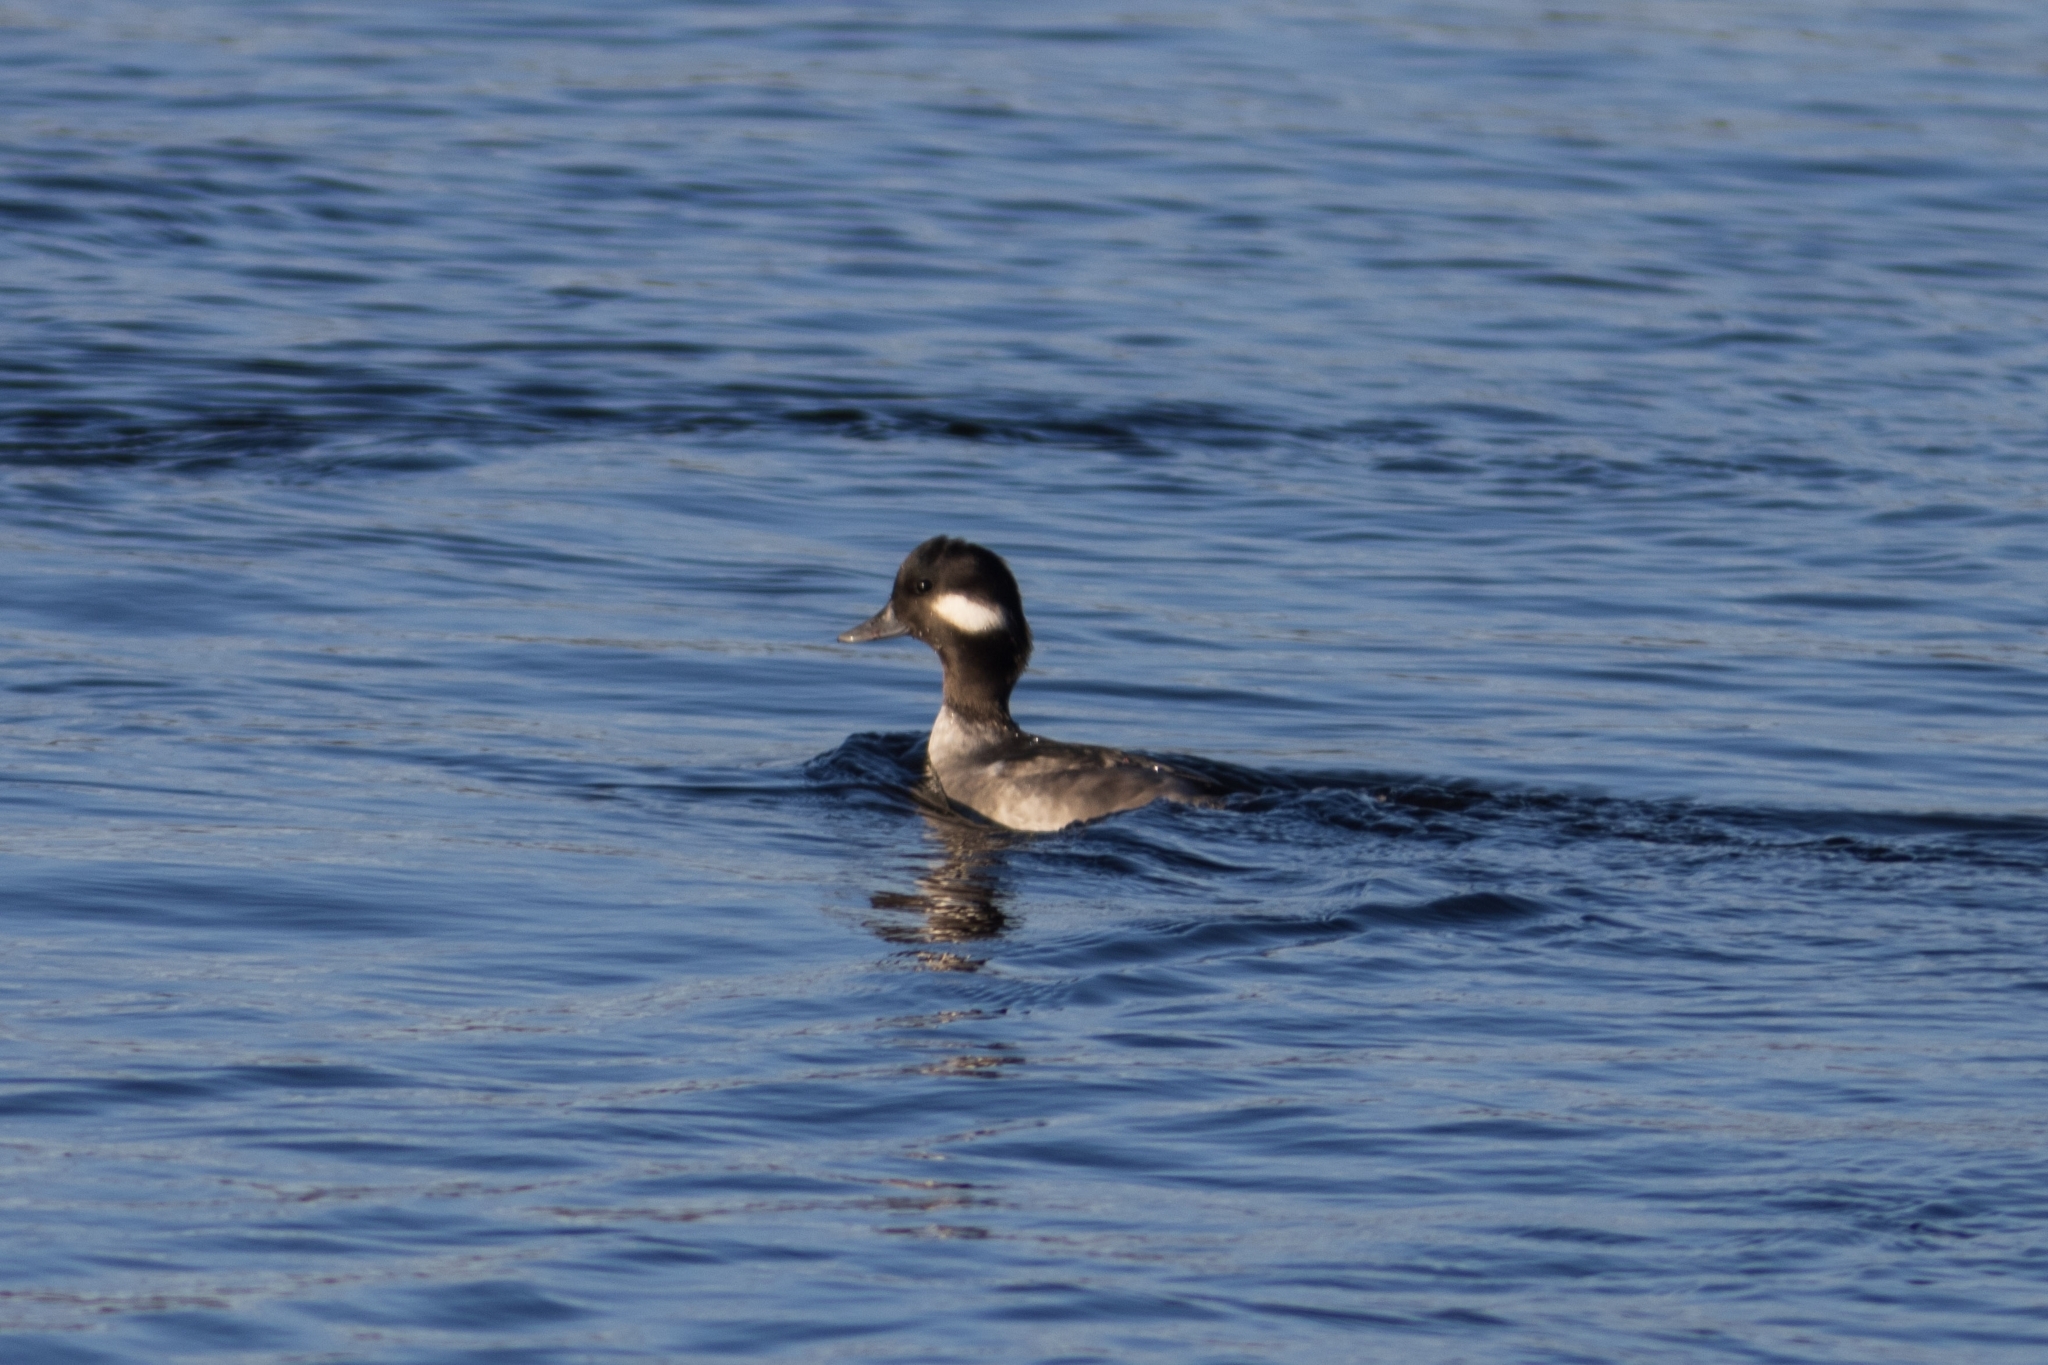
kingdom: Animalia
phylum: Chordata
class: Aves
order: Anseriformes
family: Anatidae
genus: Bucephala
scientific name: Bucephala albeola
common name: Bufflehead
